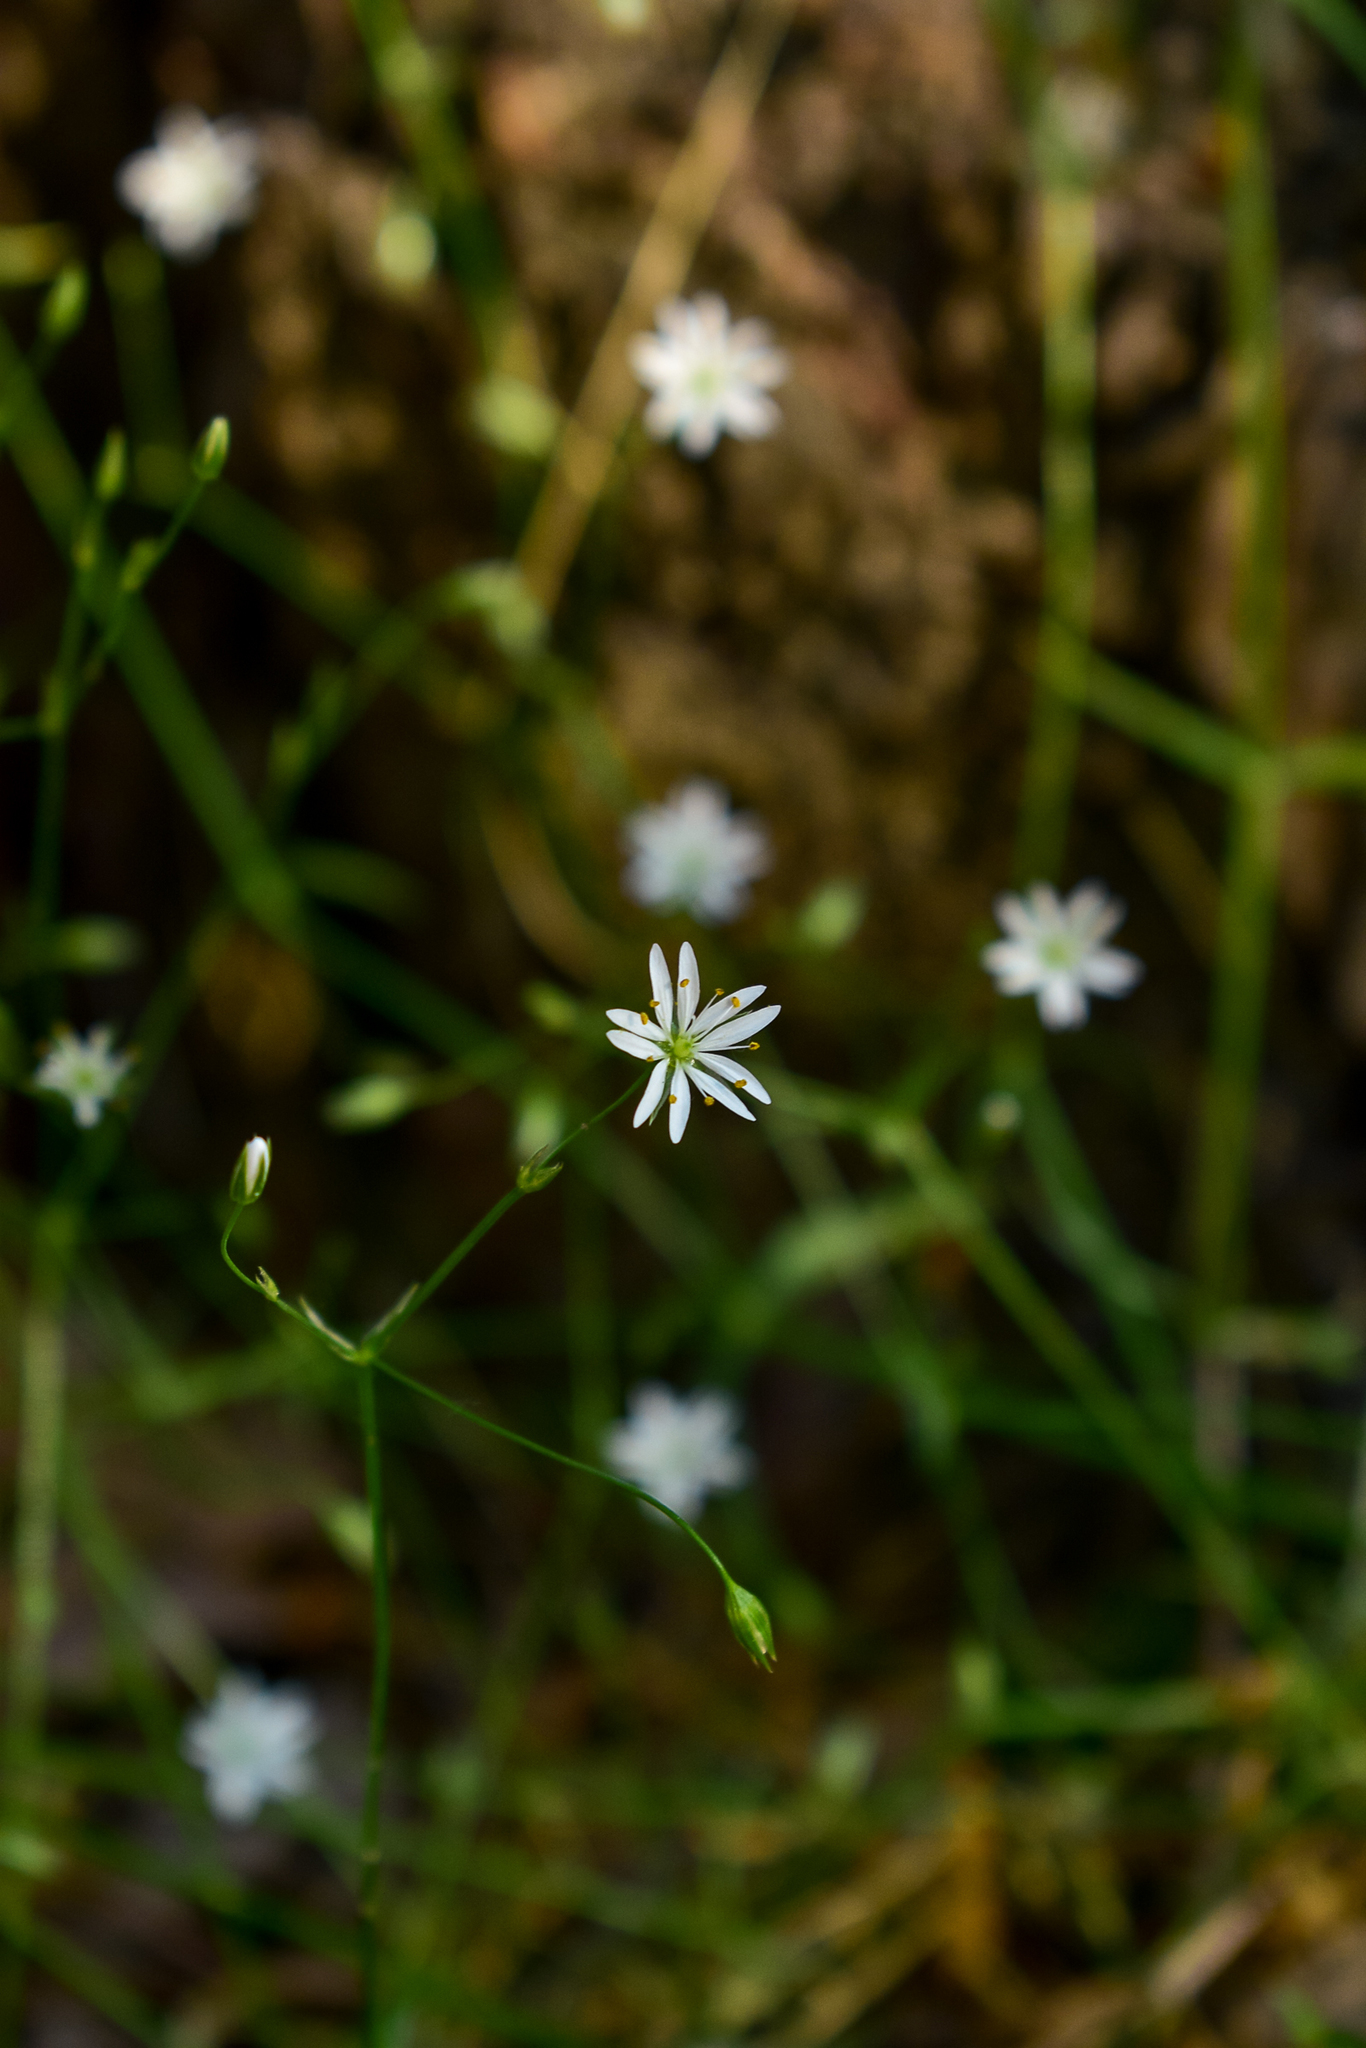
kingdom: Plantae
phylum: Tracheophyta
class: Magnoliopsida
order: Caryophyllales
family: Caryophyllaceae
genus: Stellaria
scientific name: Stellaria graminea
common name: Grass-like starwort
